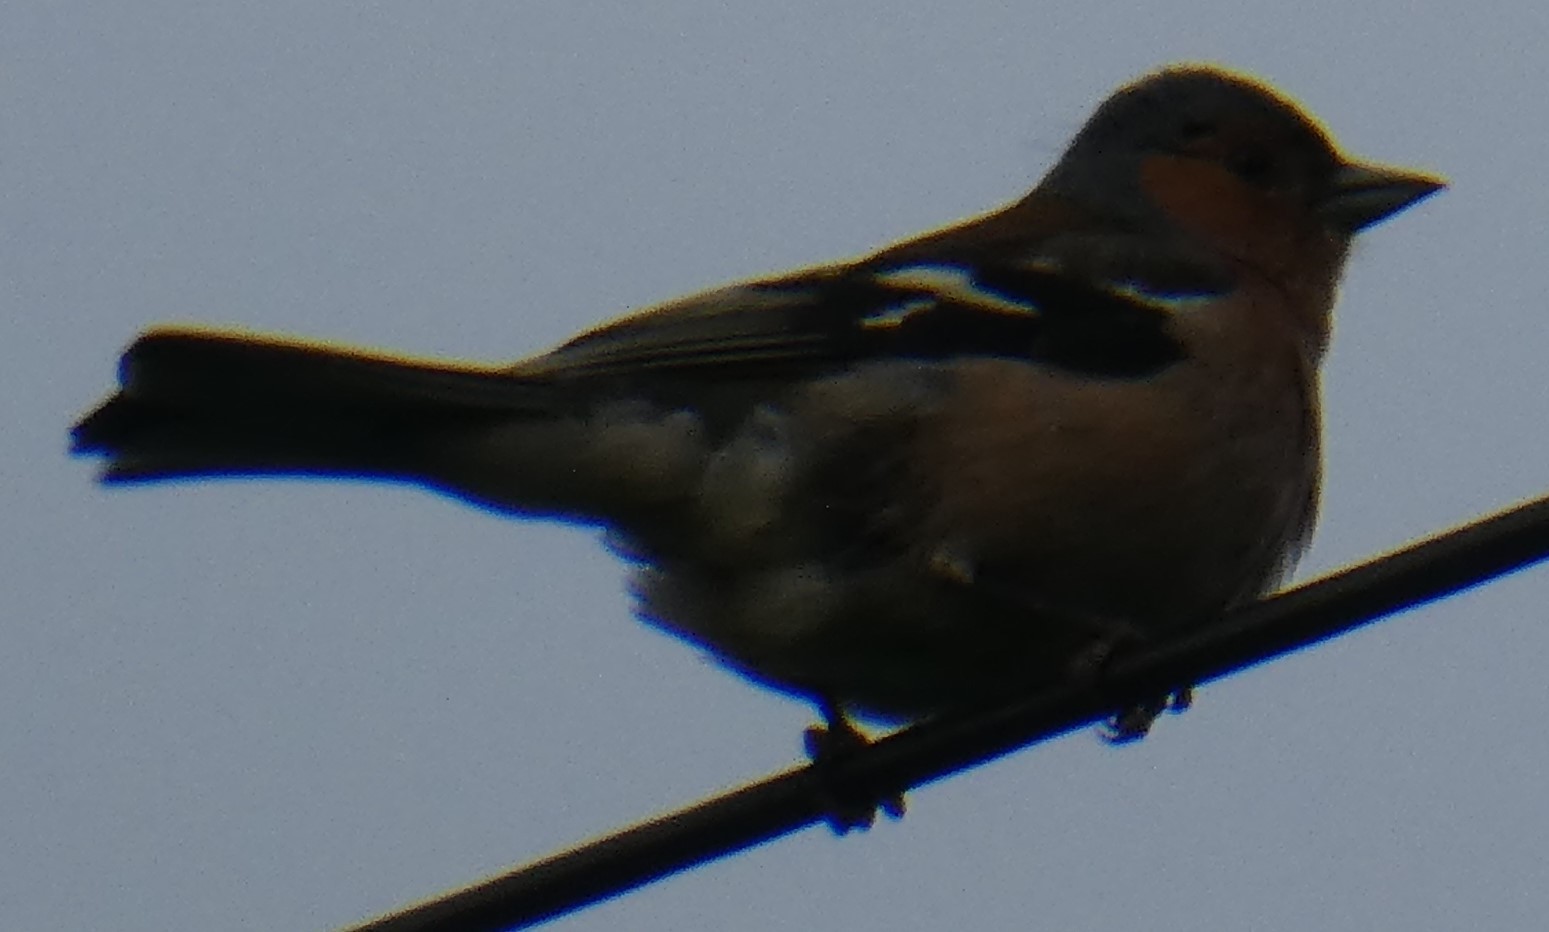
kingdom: Animalia
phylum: Chordata
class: Aves
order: Passeriformes
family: Fringillidae
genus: Fringilla
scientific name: Fringilla coelebs
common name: Common chaffinch
